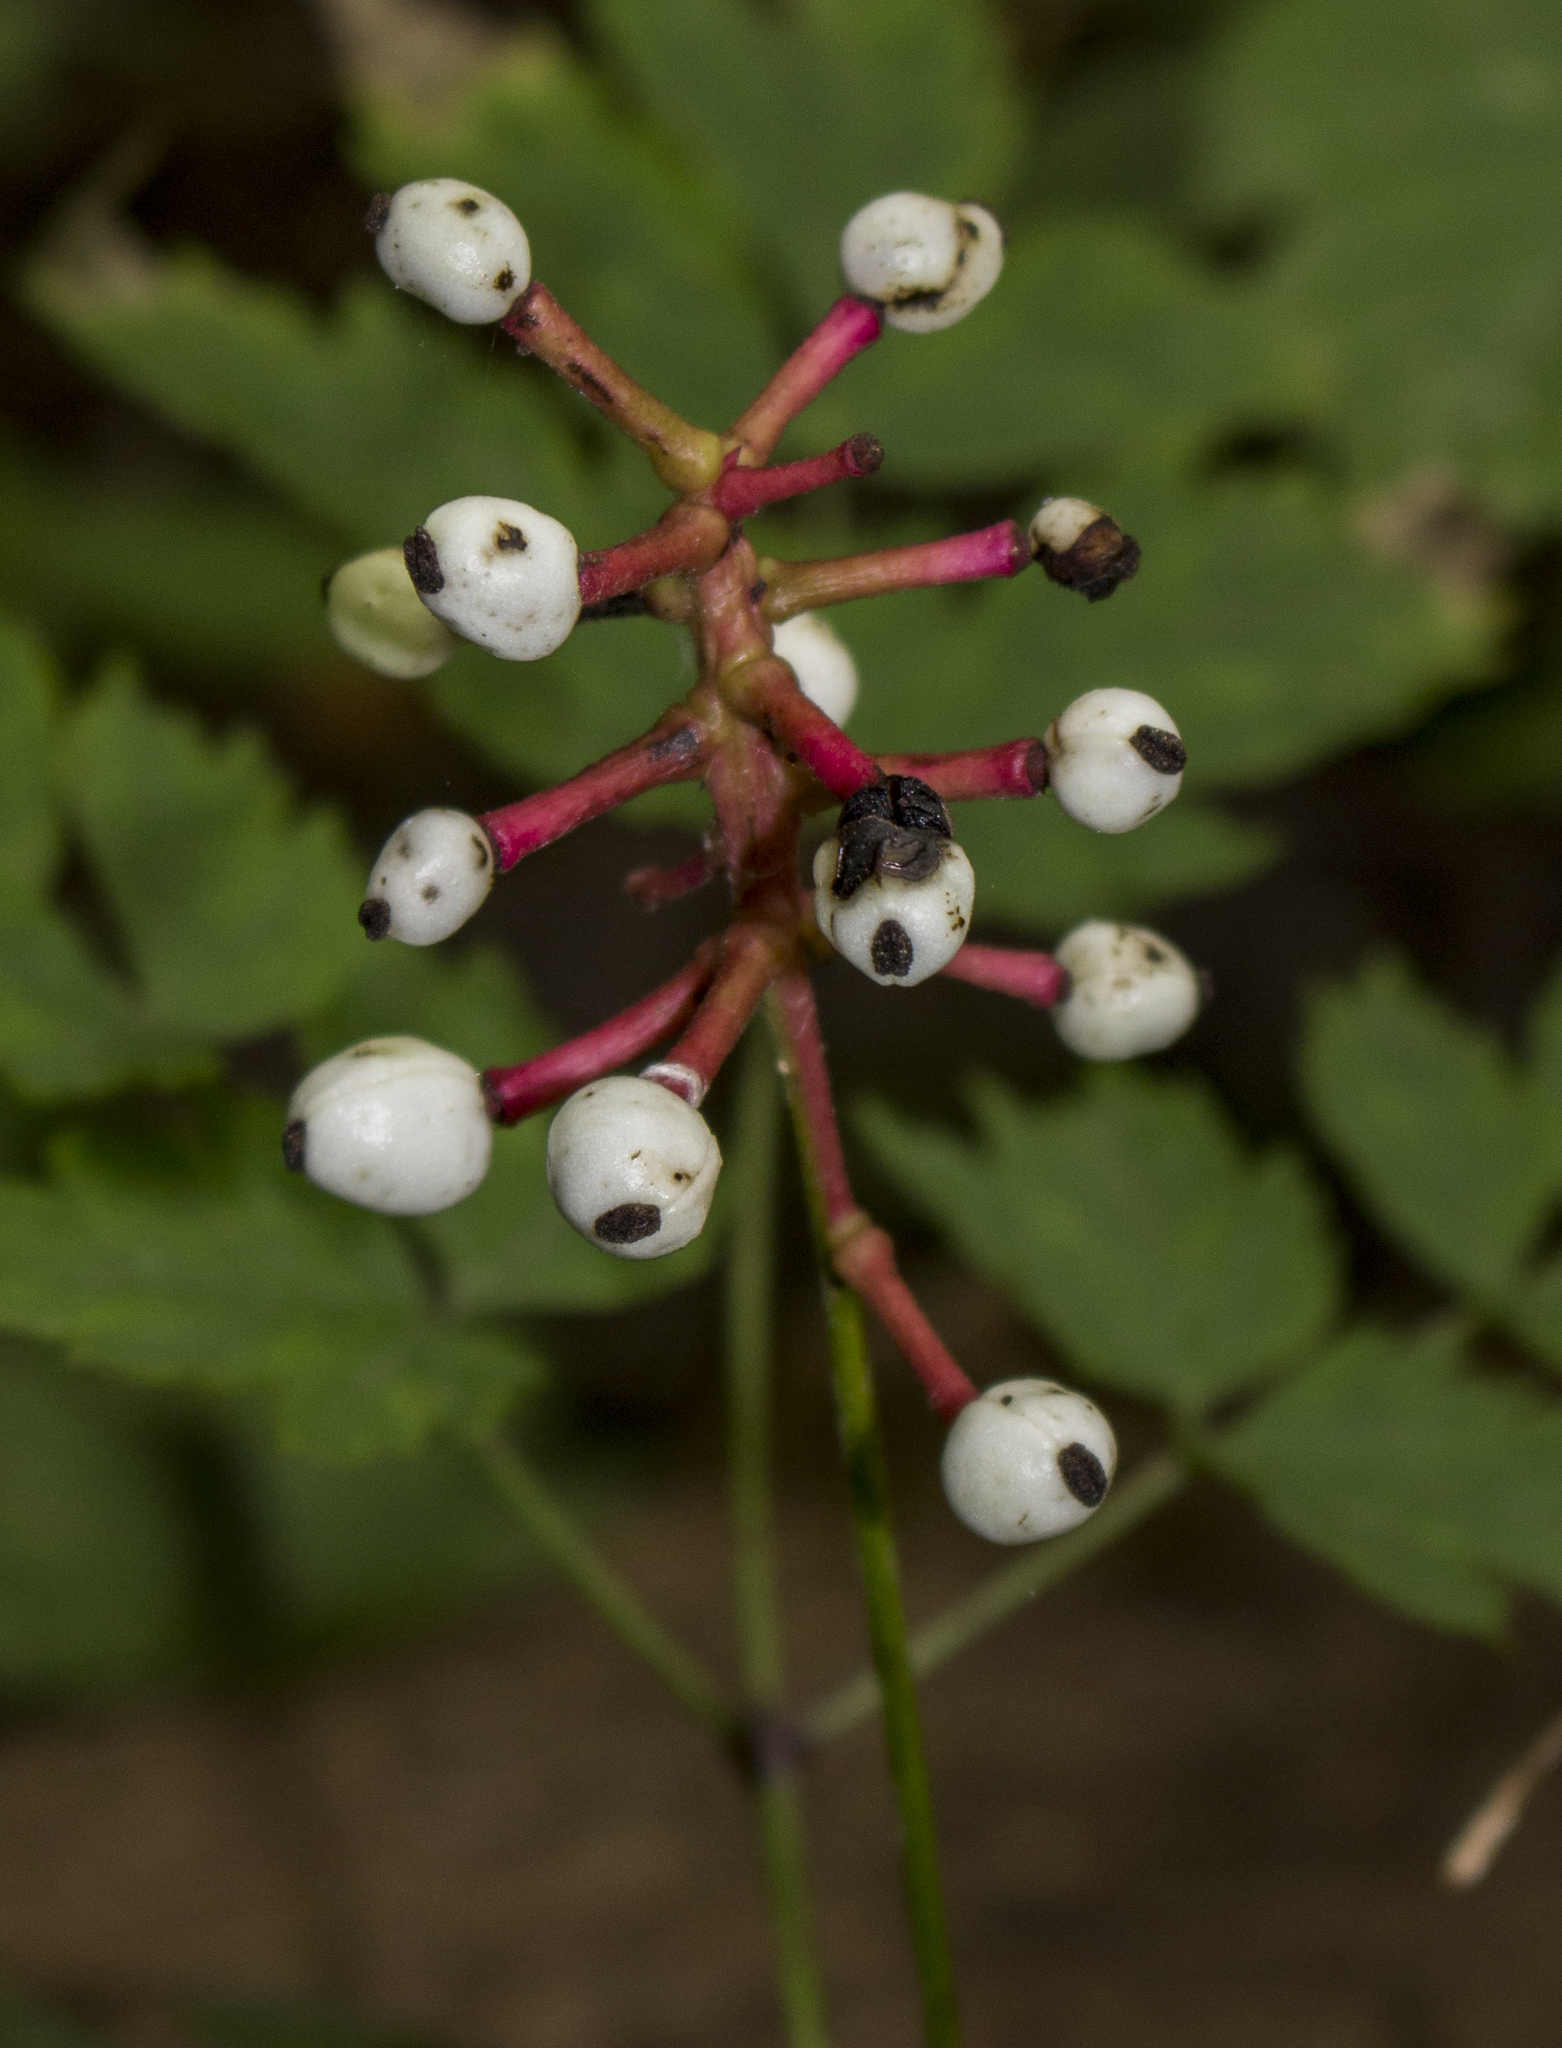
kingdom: Plantae
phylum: Tracheophyta
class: Magnoliopsida
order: Ranunculales
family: Ranunculaceae
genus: Actaea
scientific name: Actaea pachypoda
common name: Doll's-eyes
